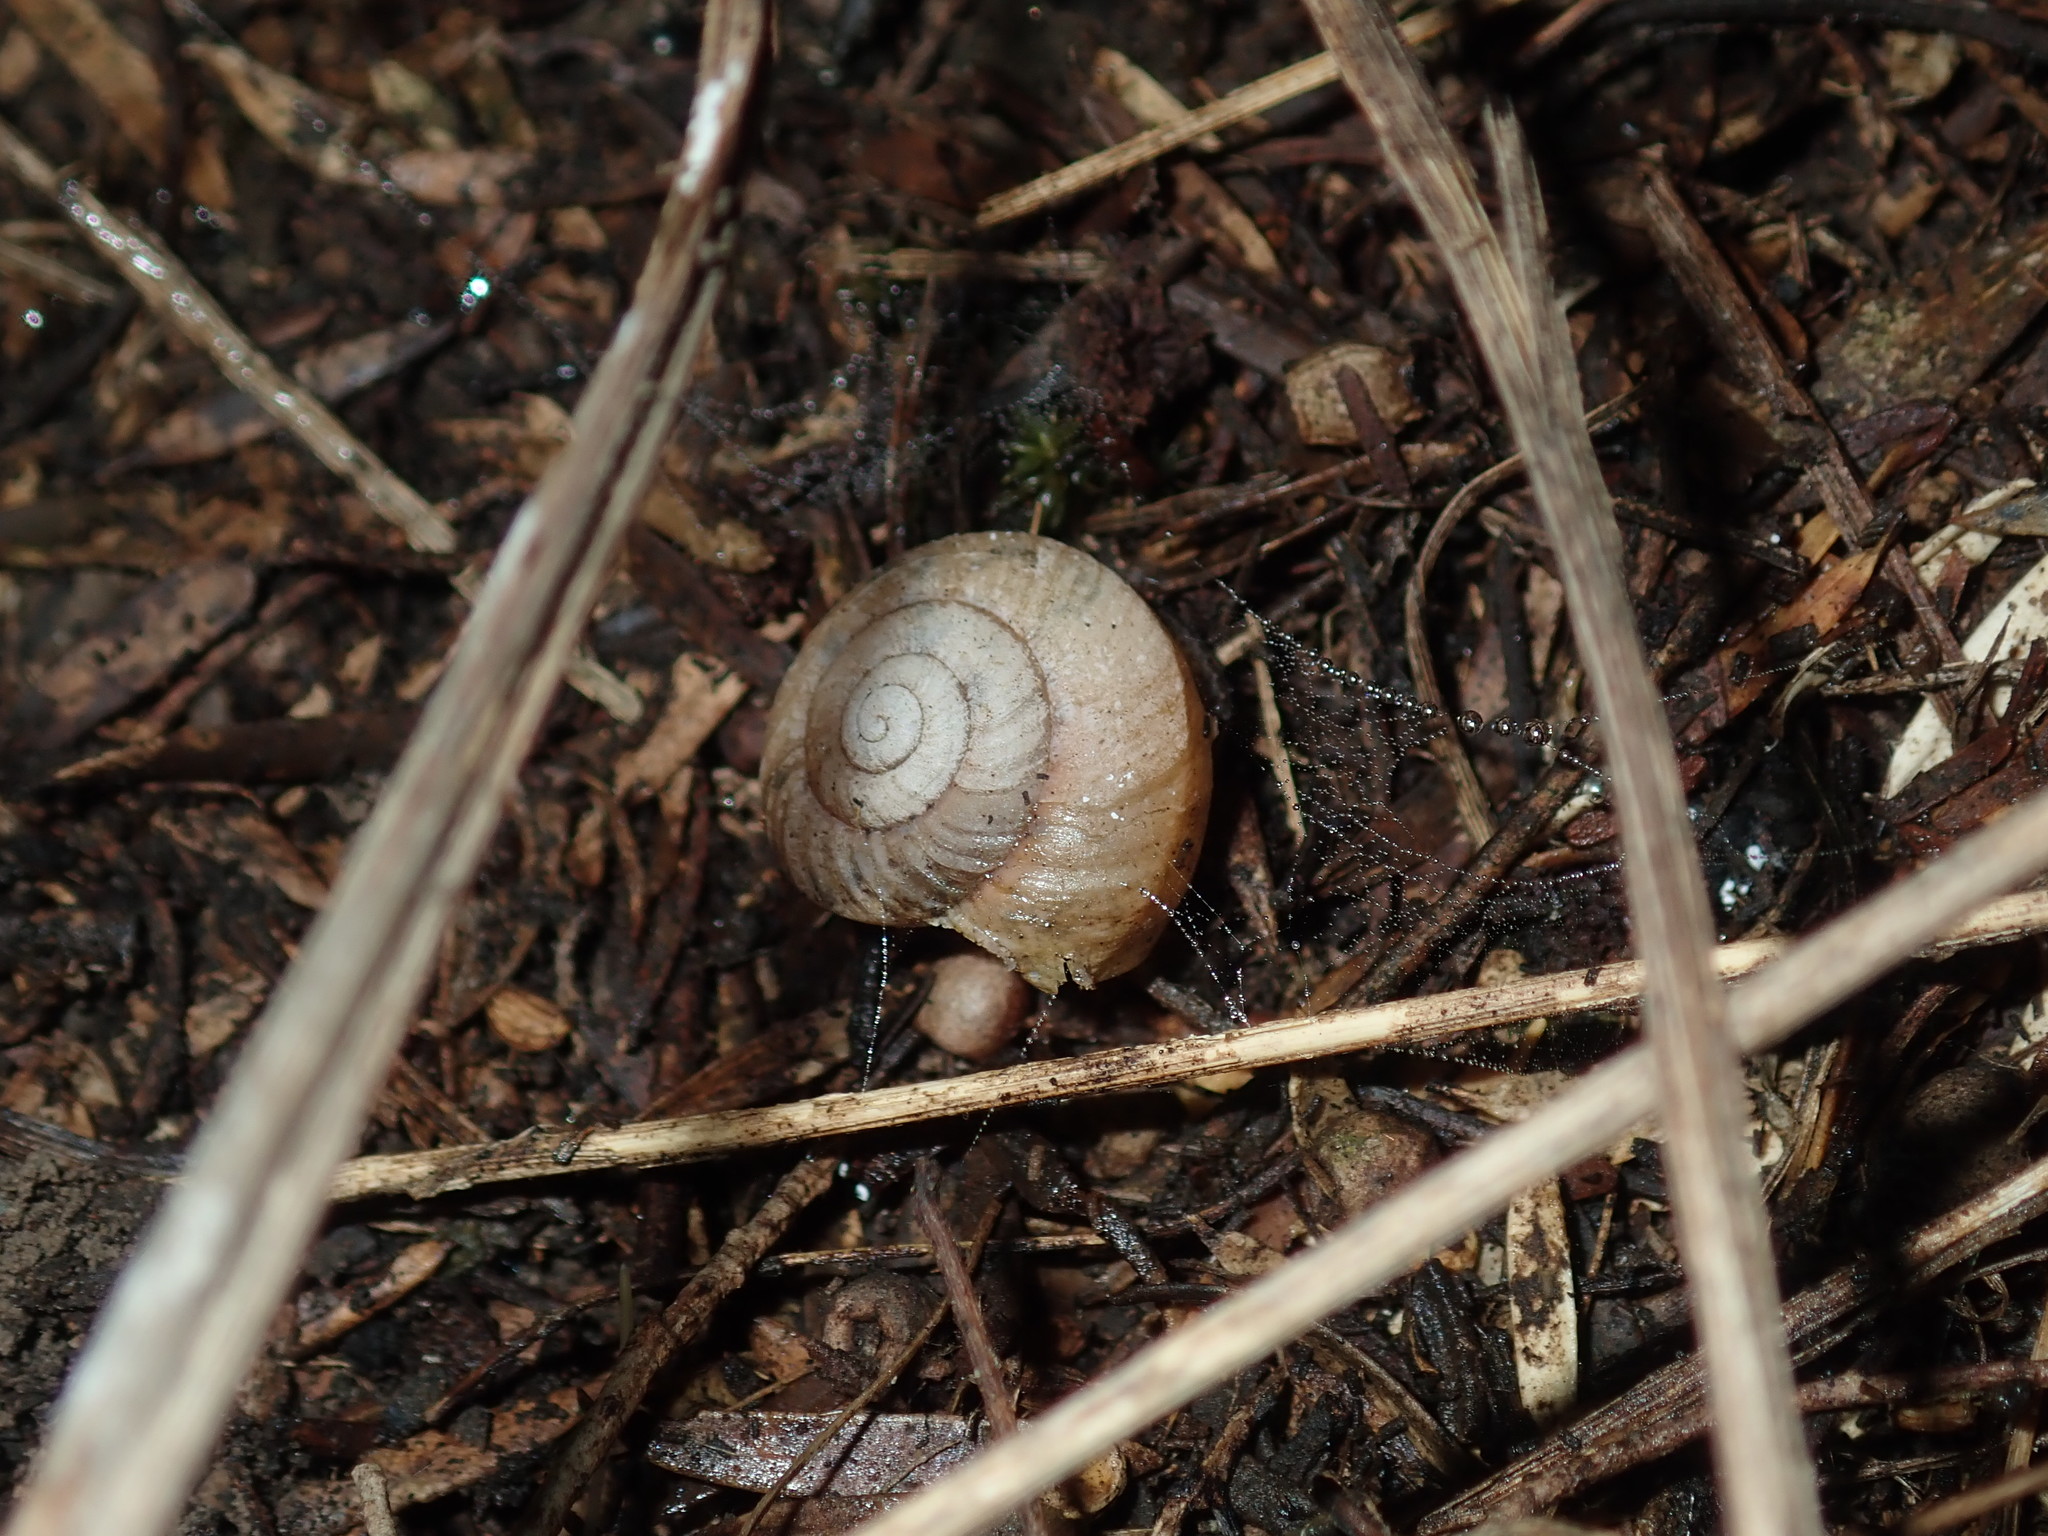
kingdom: Animalia
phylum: Mollusca
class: Gastropoda
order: Stylommatophora
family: Camaenidae
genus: Sauroconcha
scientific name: Sauroconcha sheai
